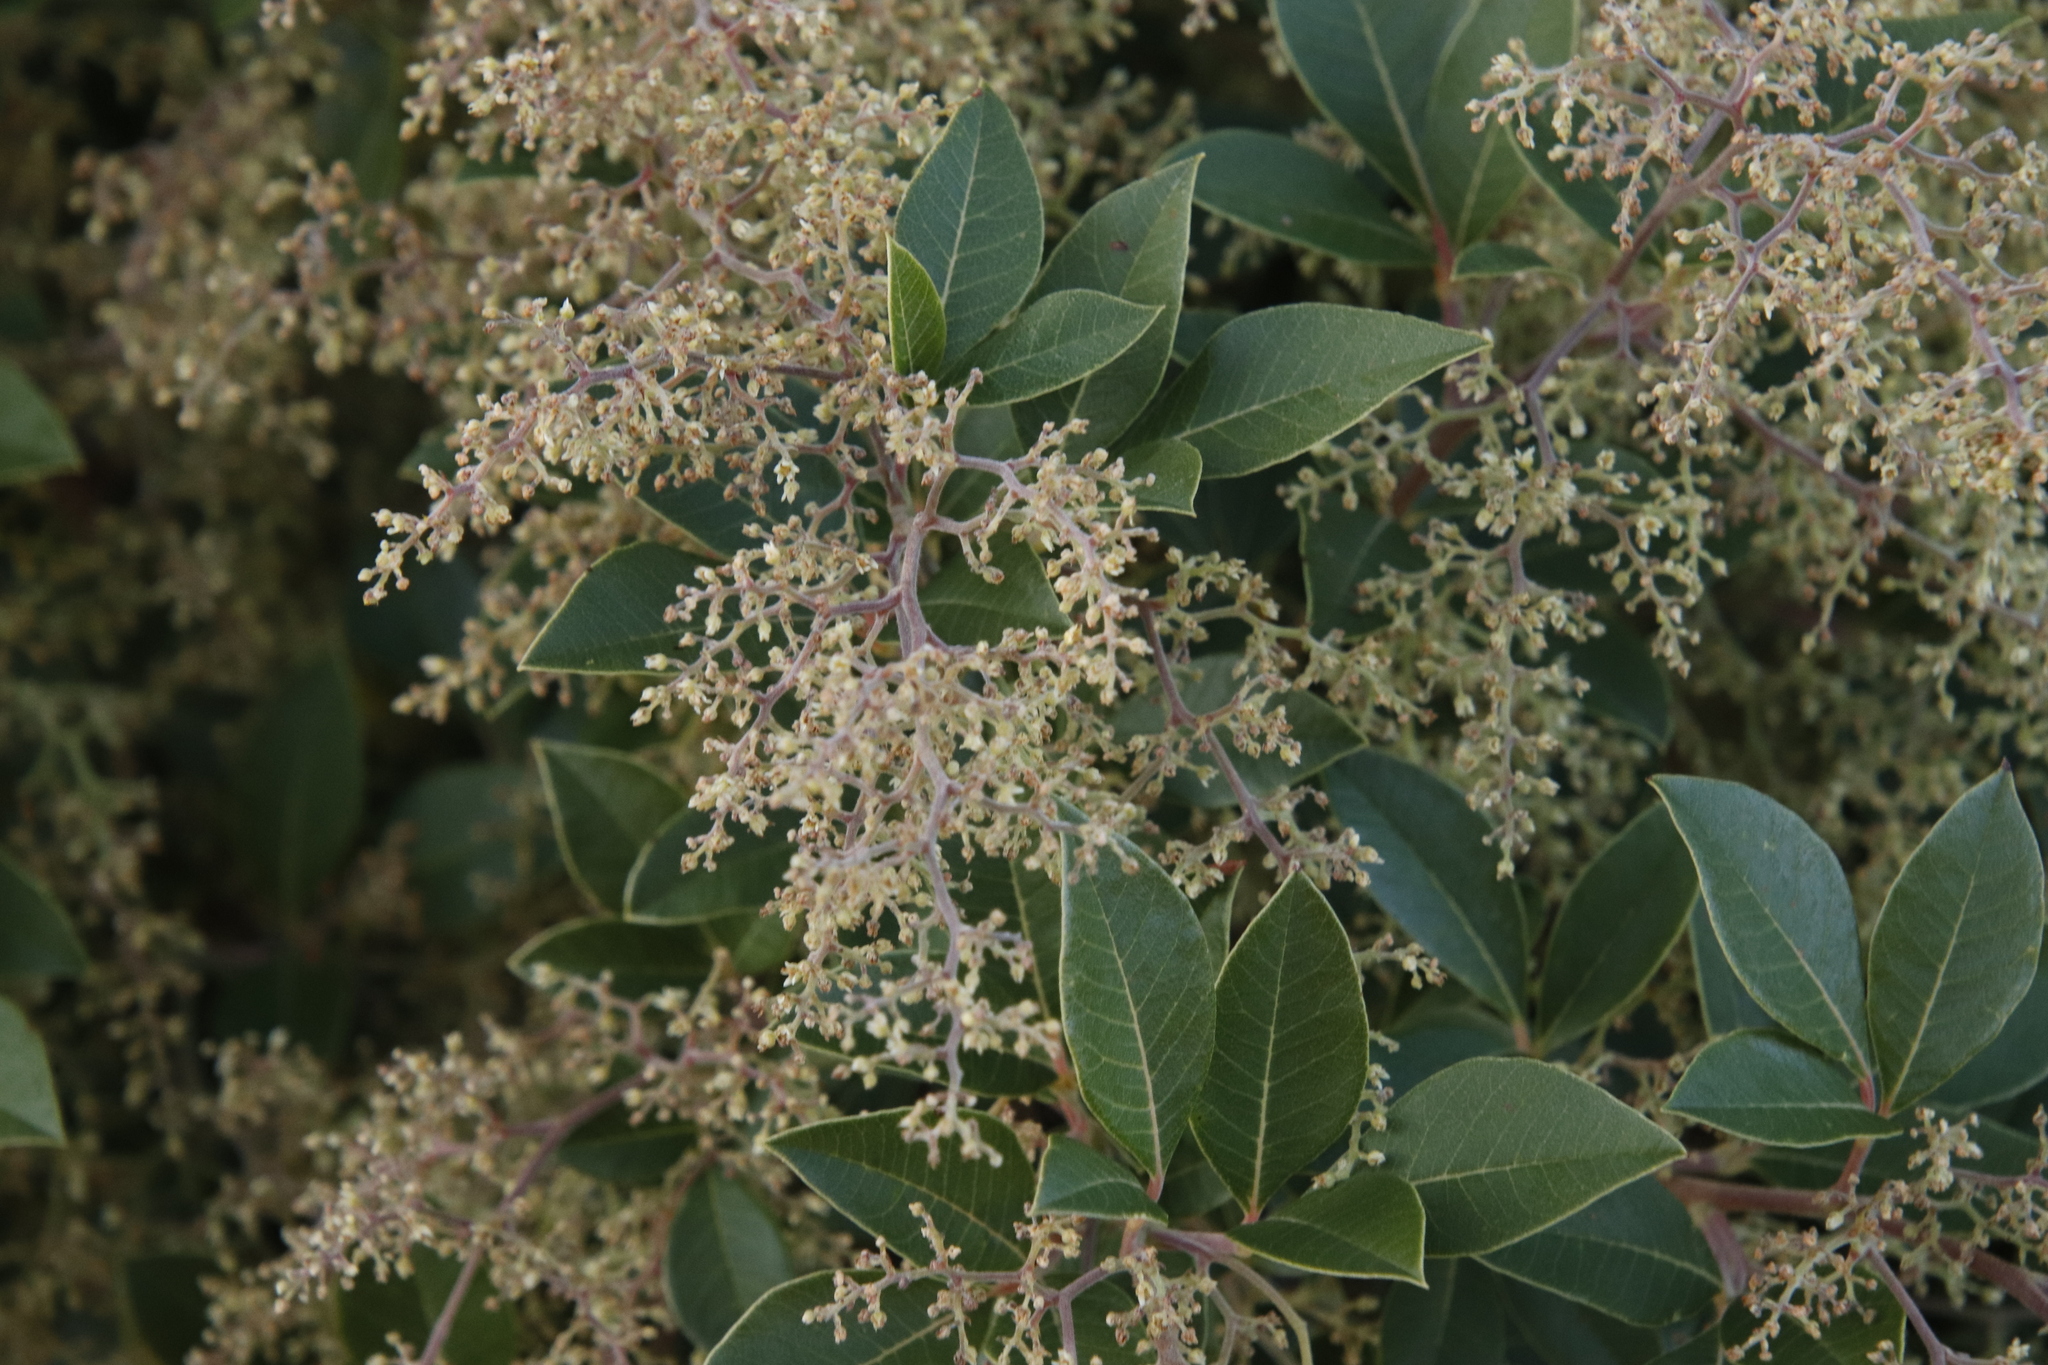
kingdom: Plantae
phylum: Tracheophyta
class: Magnoliopsida
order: Sapindales
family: Anacardiaceae
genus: Searsia
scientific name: Searsia tomentosa
